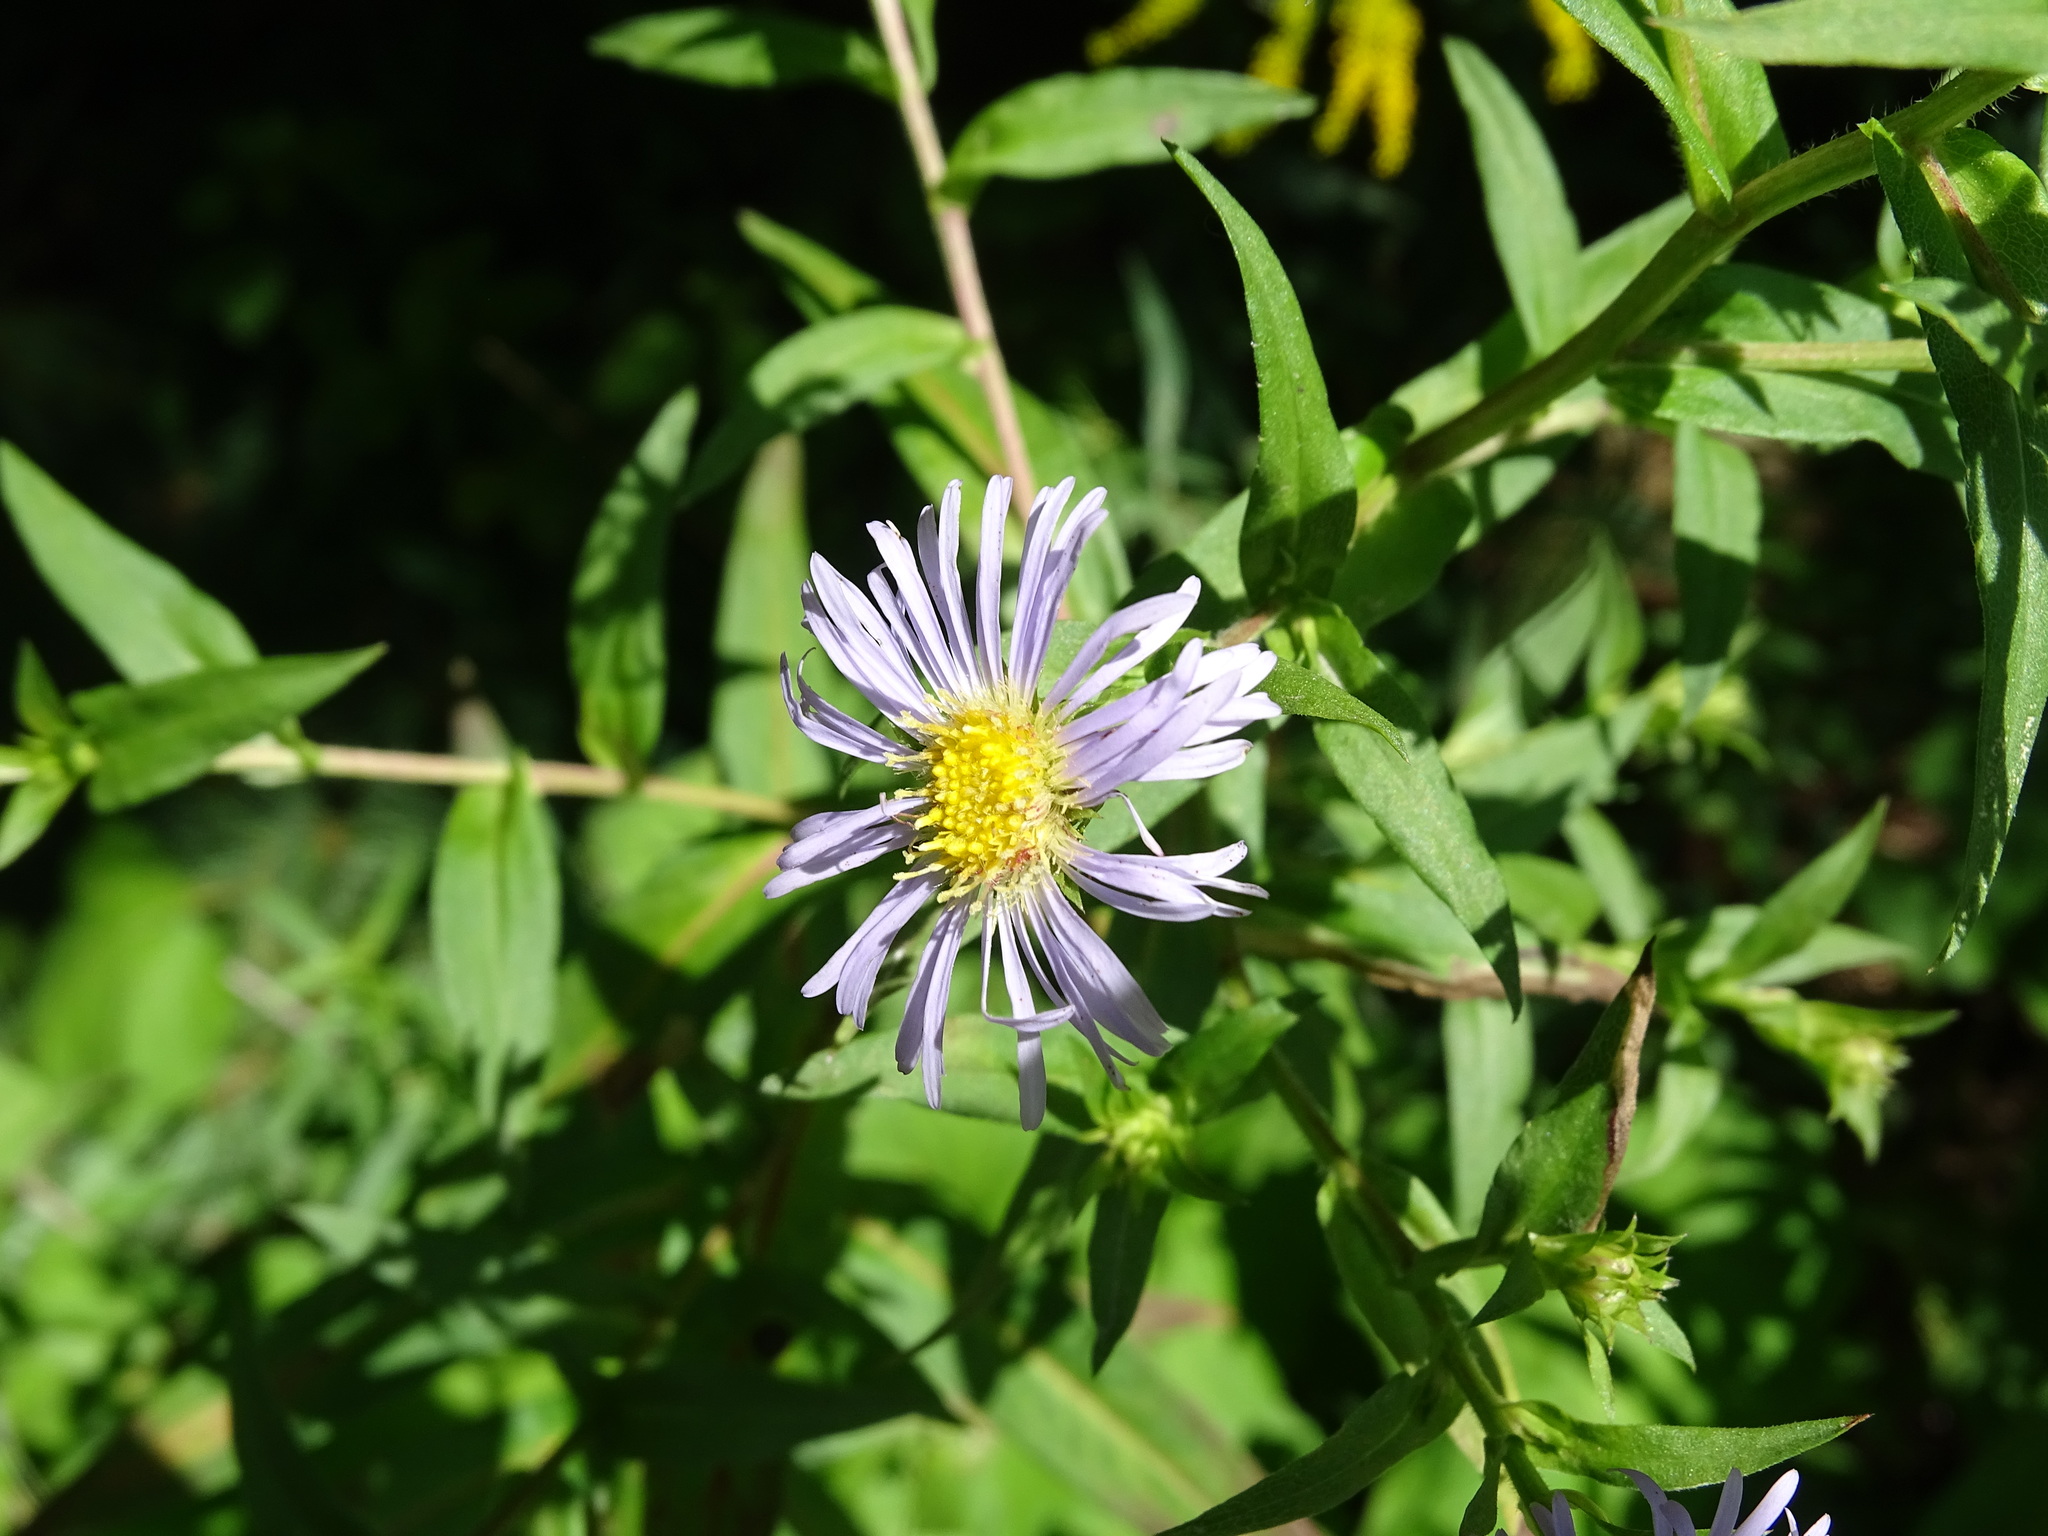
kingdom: Plantae
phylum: Tracheophyta
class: Magnoliopsida
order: Asterales
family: Asteraceae
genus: Symphyotrichum
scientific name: Symphyotrichum puniceum
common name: Bog aster
